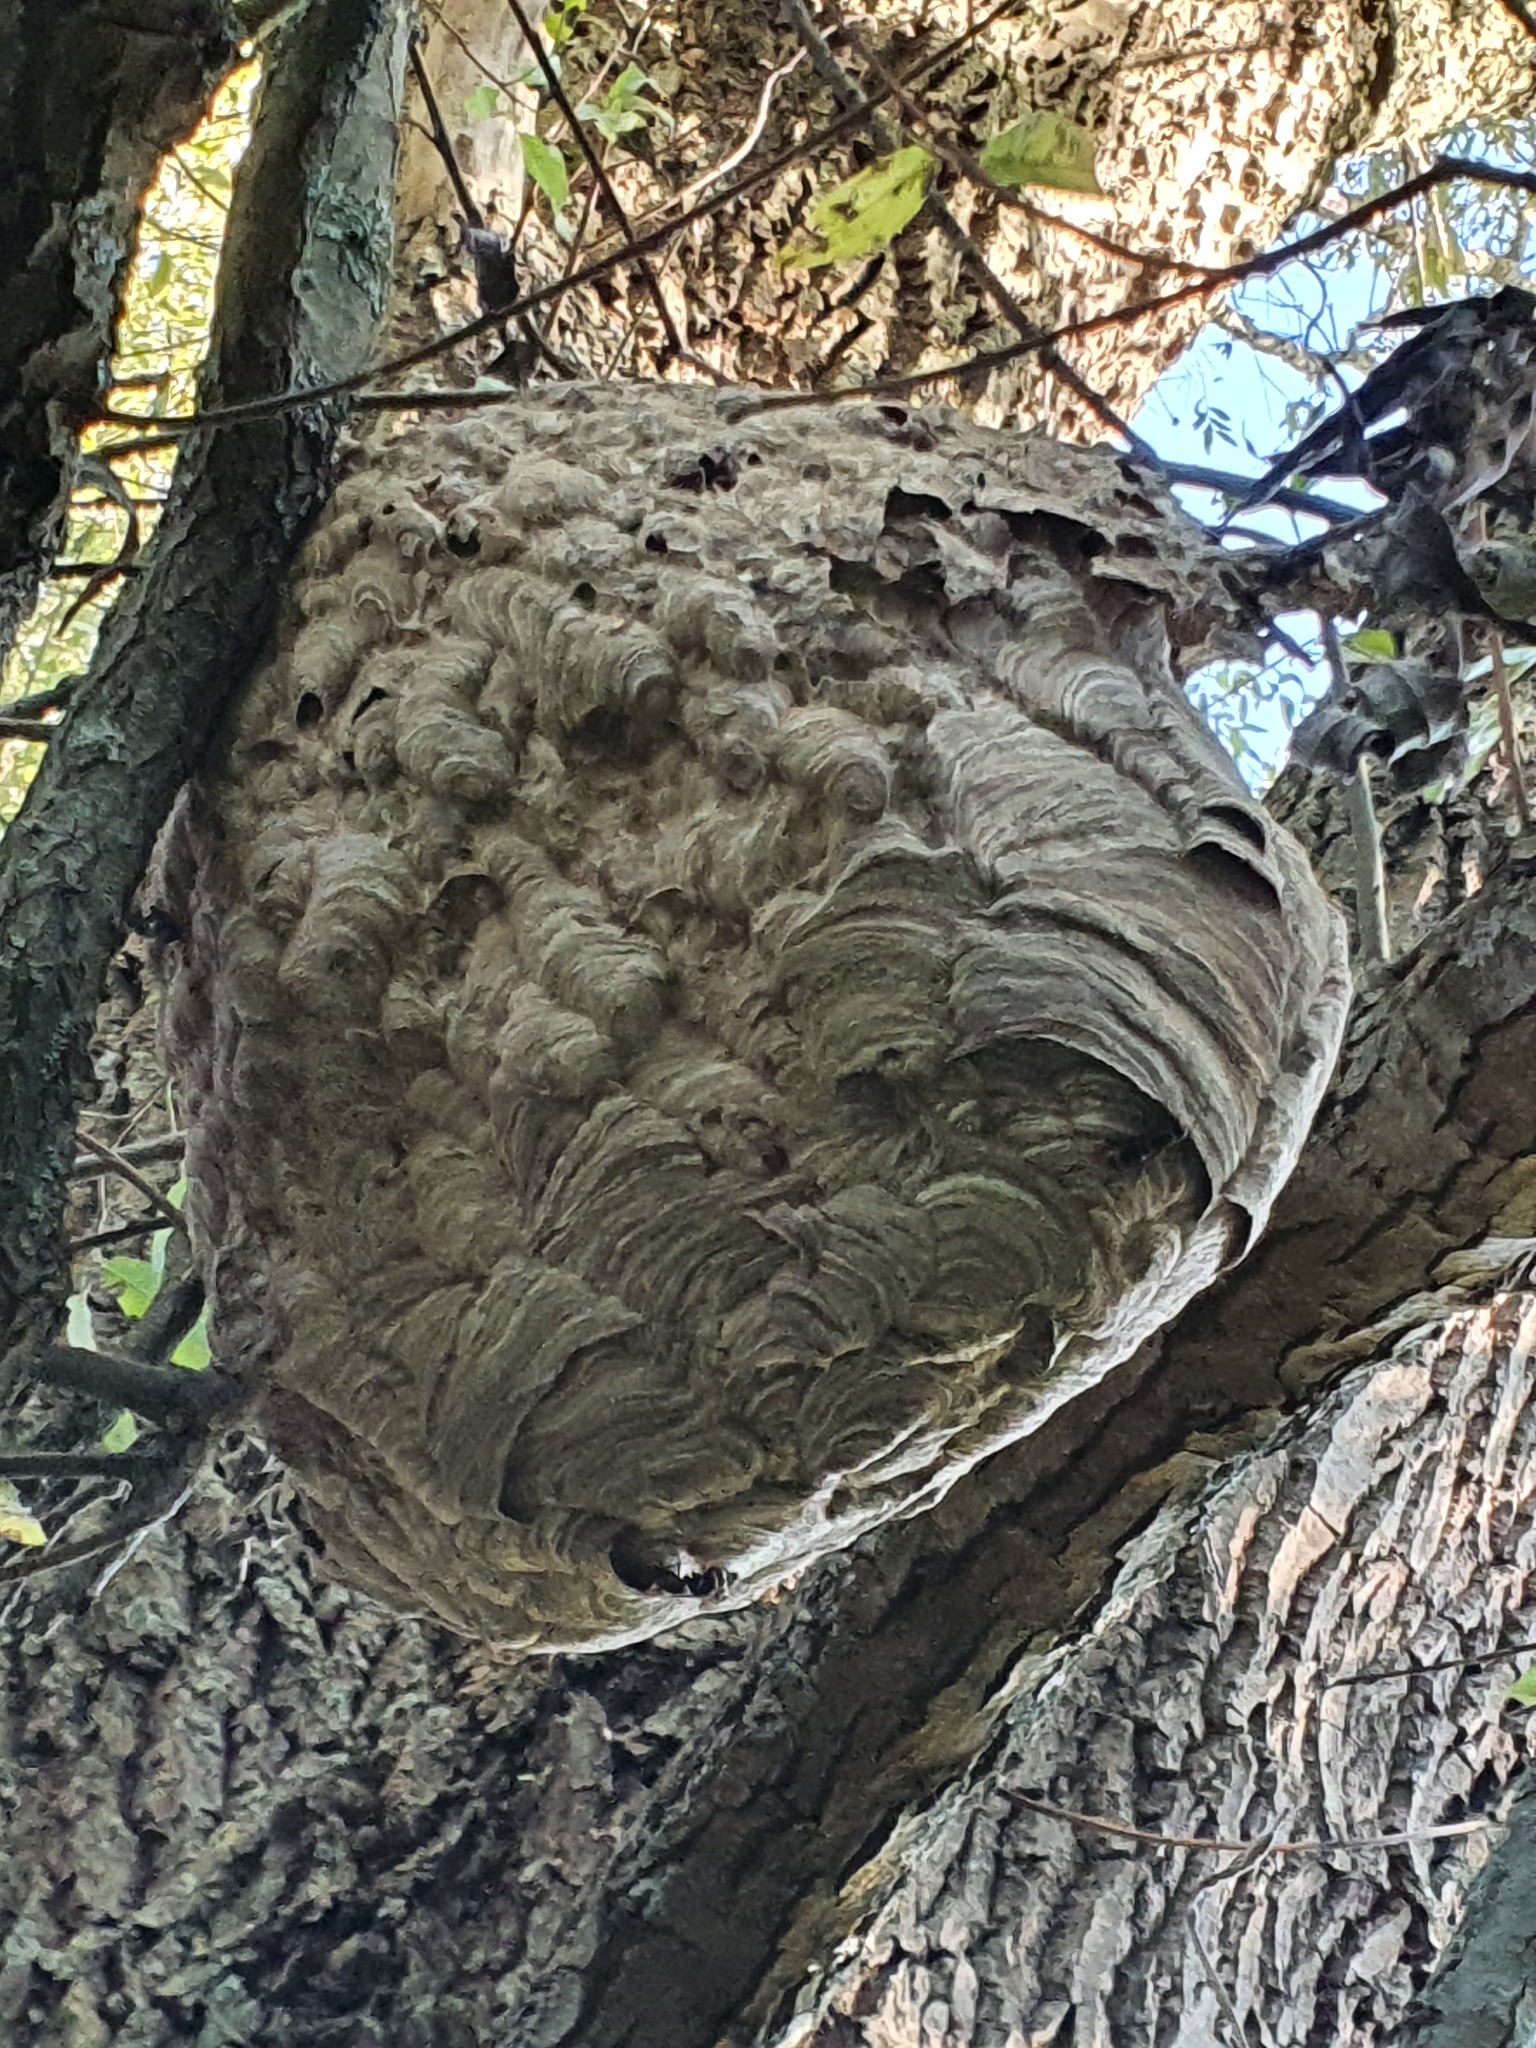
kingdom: Animalia
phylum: Arthropoda
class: Insecta
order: Hymenoptera
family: Vespidae
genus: Vespa
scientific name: Vespa velutina
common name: Asian hornet
